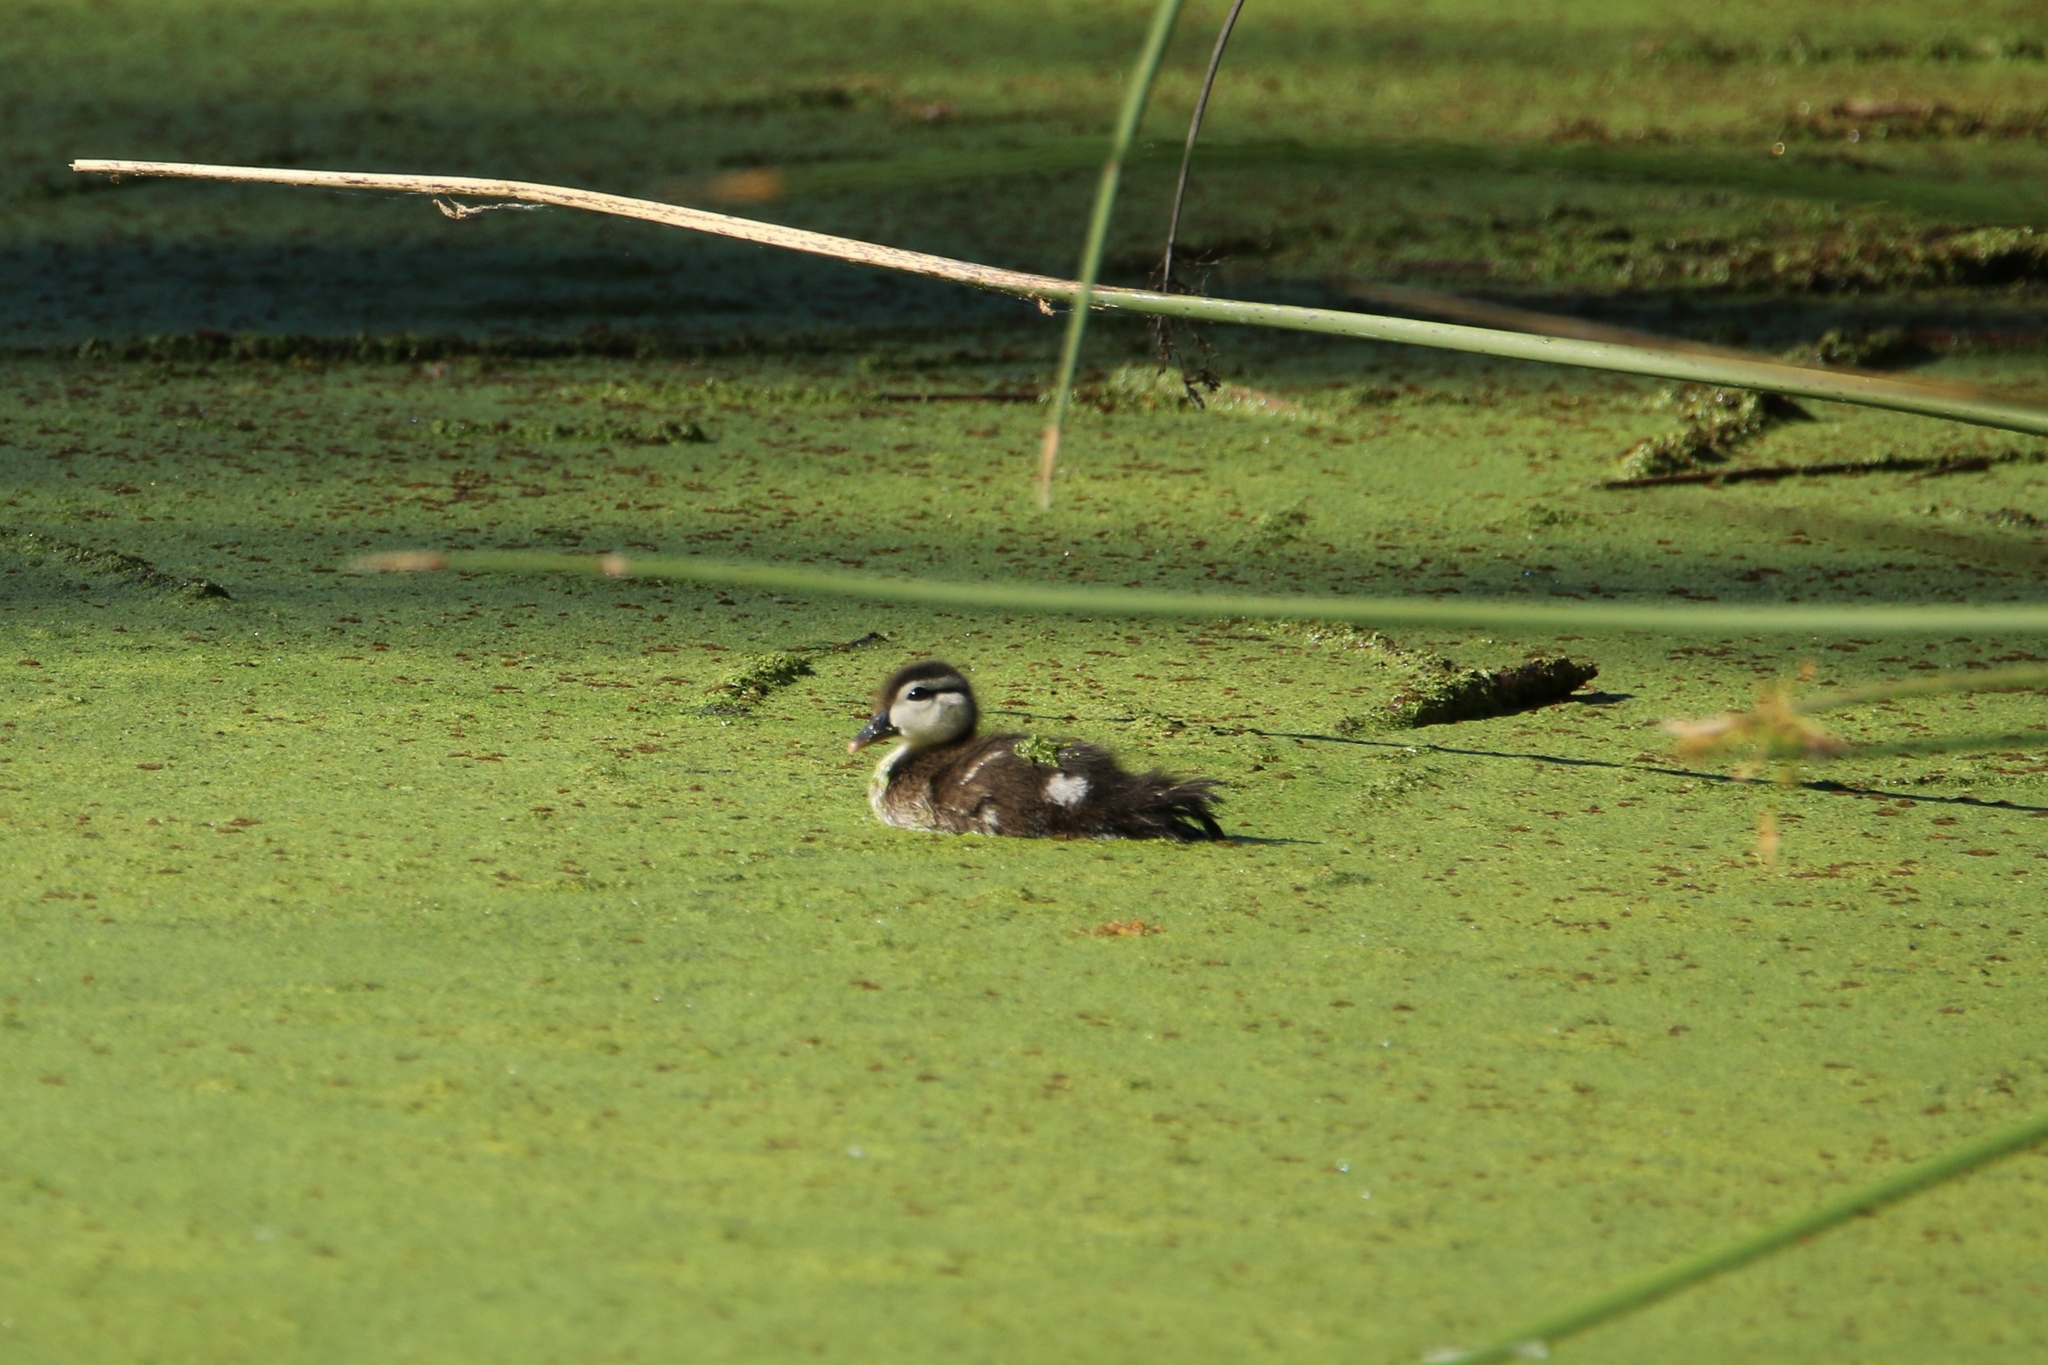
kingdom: Animalia
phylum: Chordata
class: Aves
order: Anseriformes
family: Anatidae
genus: Aix
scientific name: Aix sponsa
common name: Wood duck
